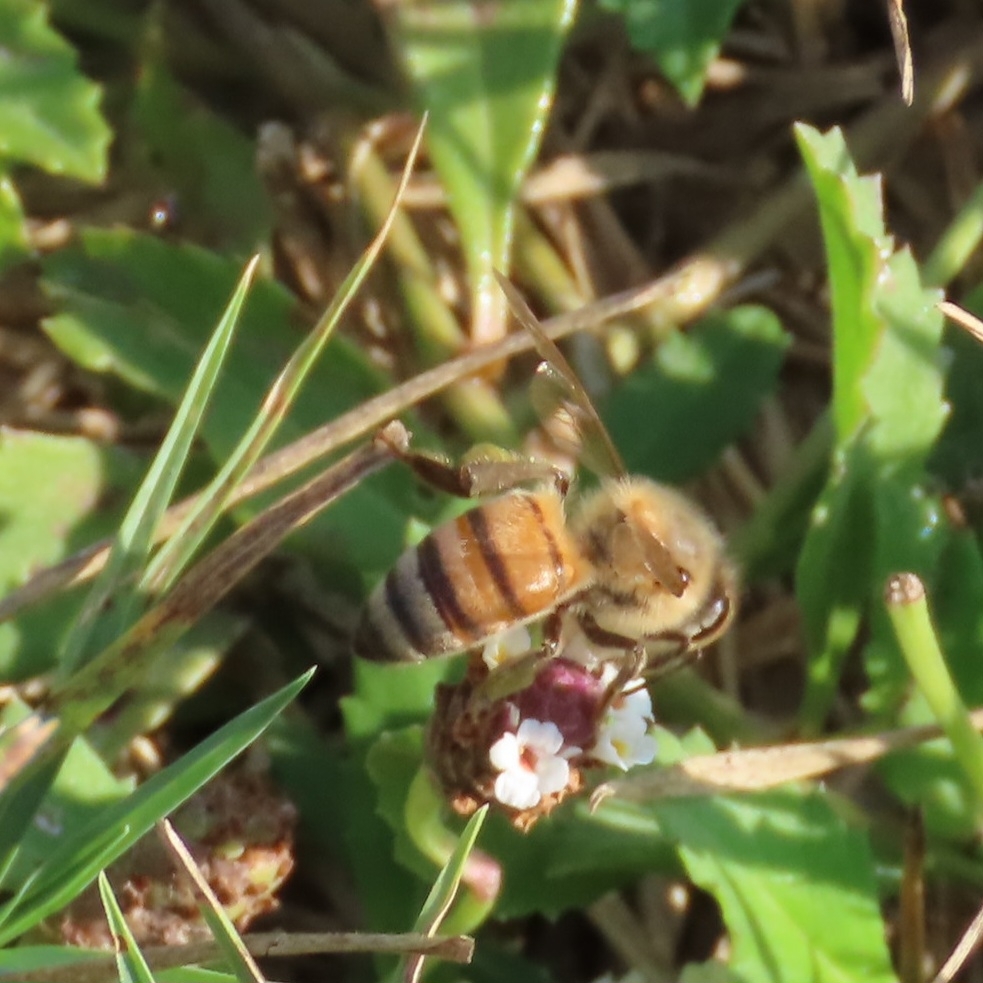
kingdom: Animalia
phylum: Arthropoda
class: Insecta
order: Hymenoptera
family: Apidae
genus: Apis
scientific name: Apis mellifera
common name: Honey bee
